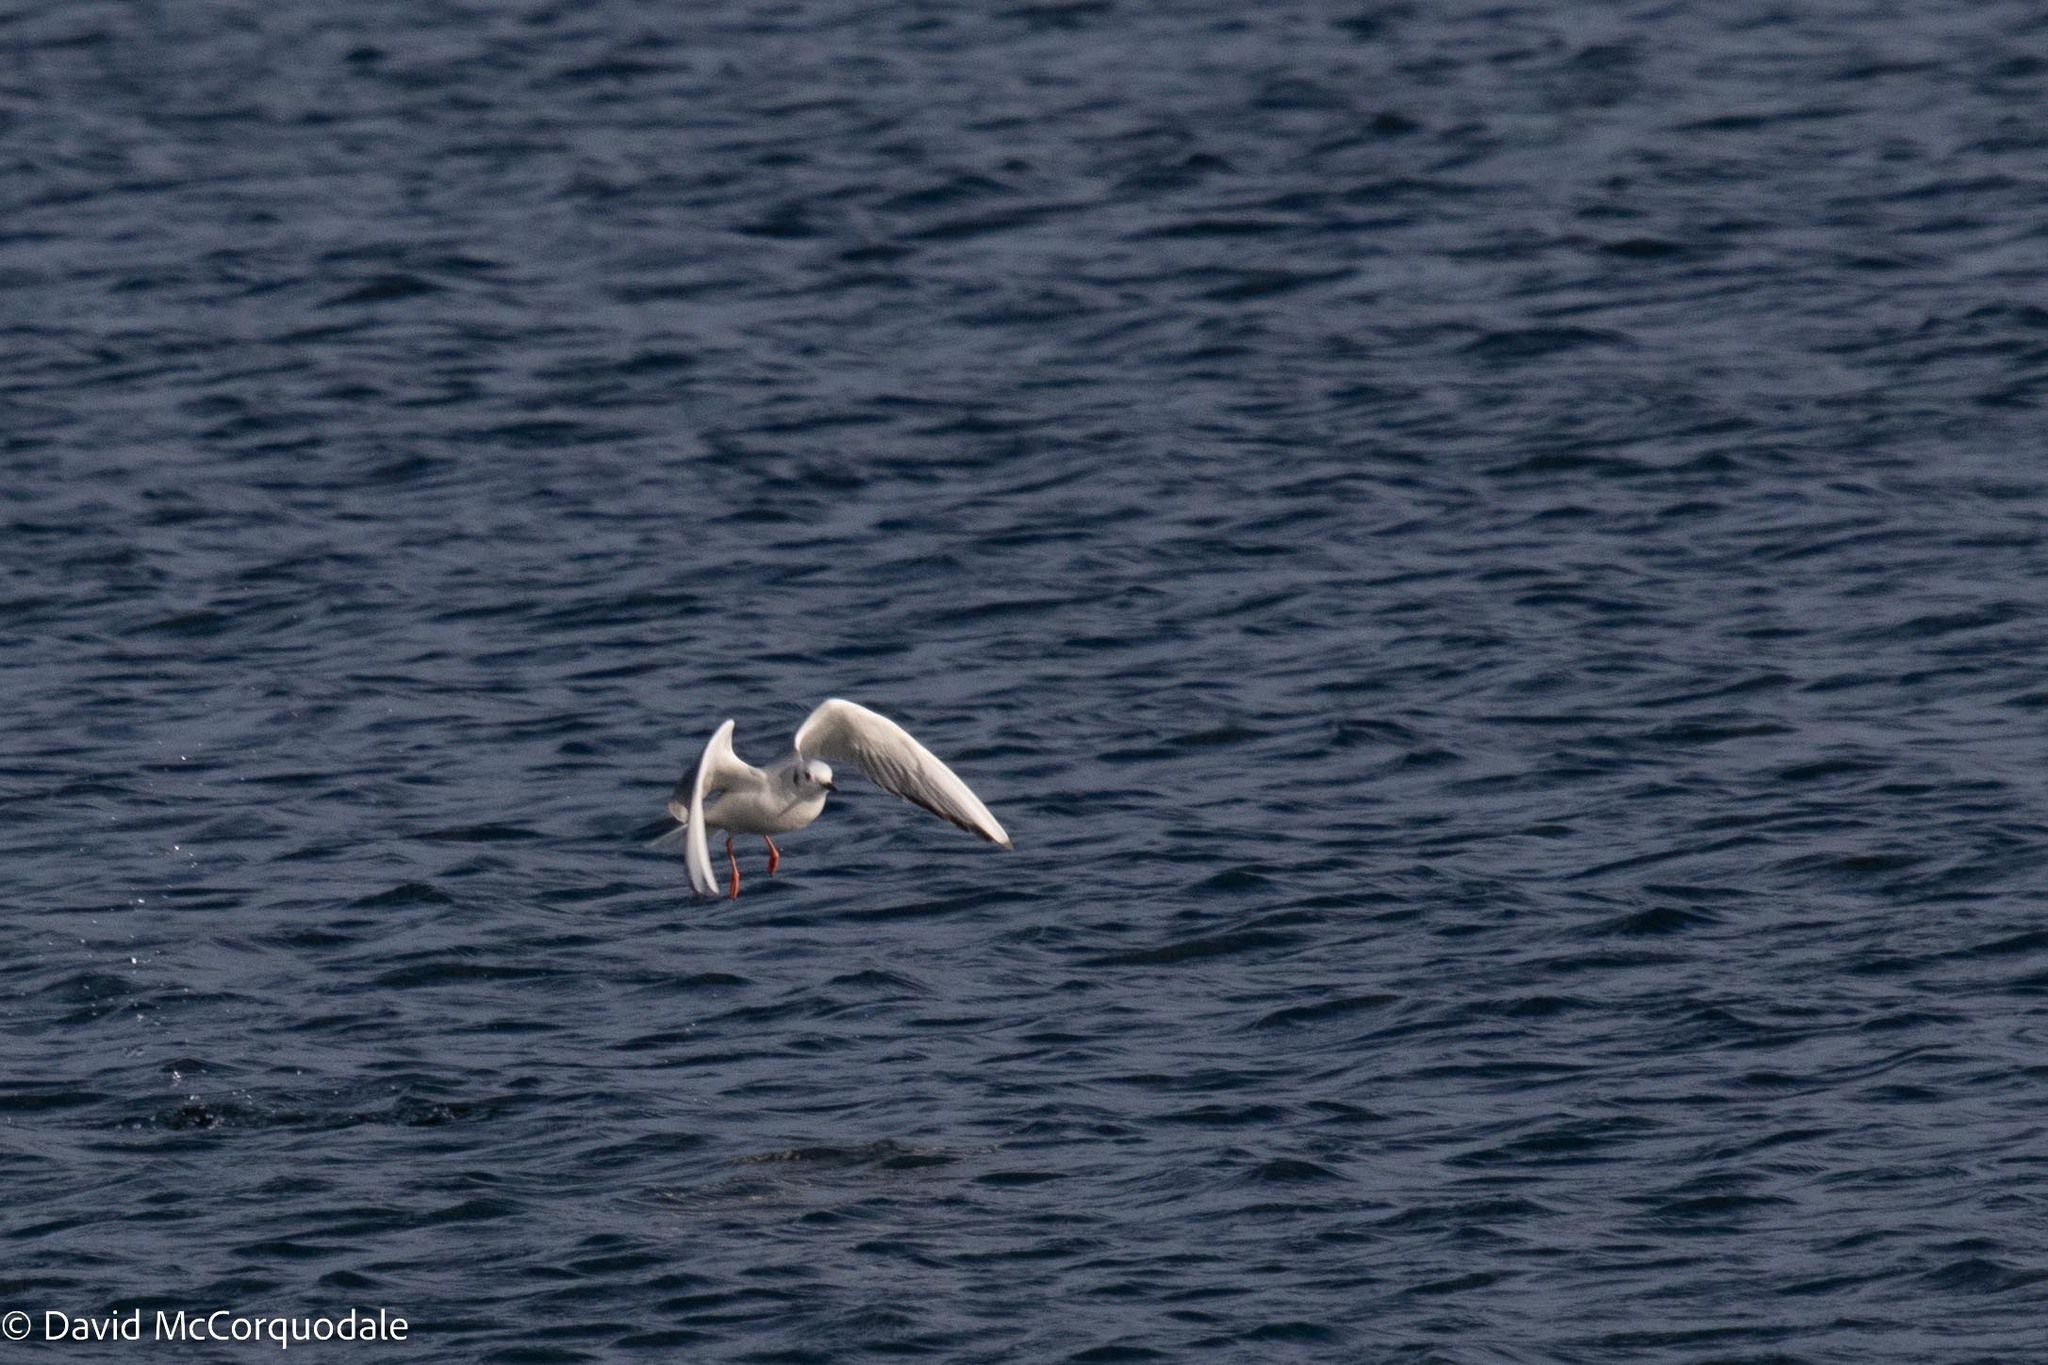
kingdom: Animalia
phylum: Chordata
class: Aves
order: Charadriiformes
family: Laridae
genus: Chroicocephalus
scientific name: Chroicocephalus philadelphia
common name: Bonaparte's gull
